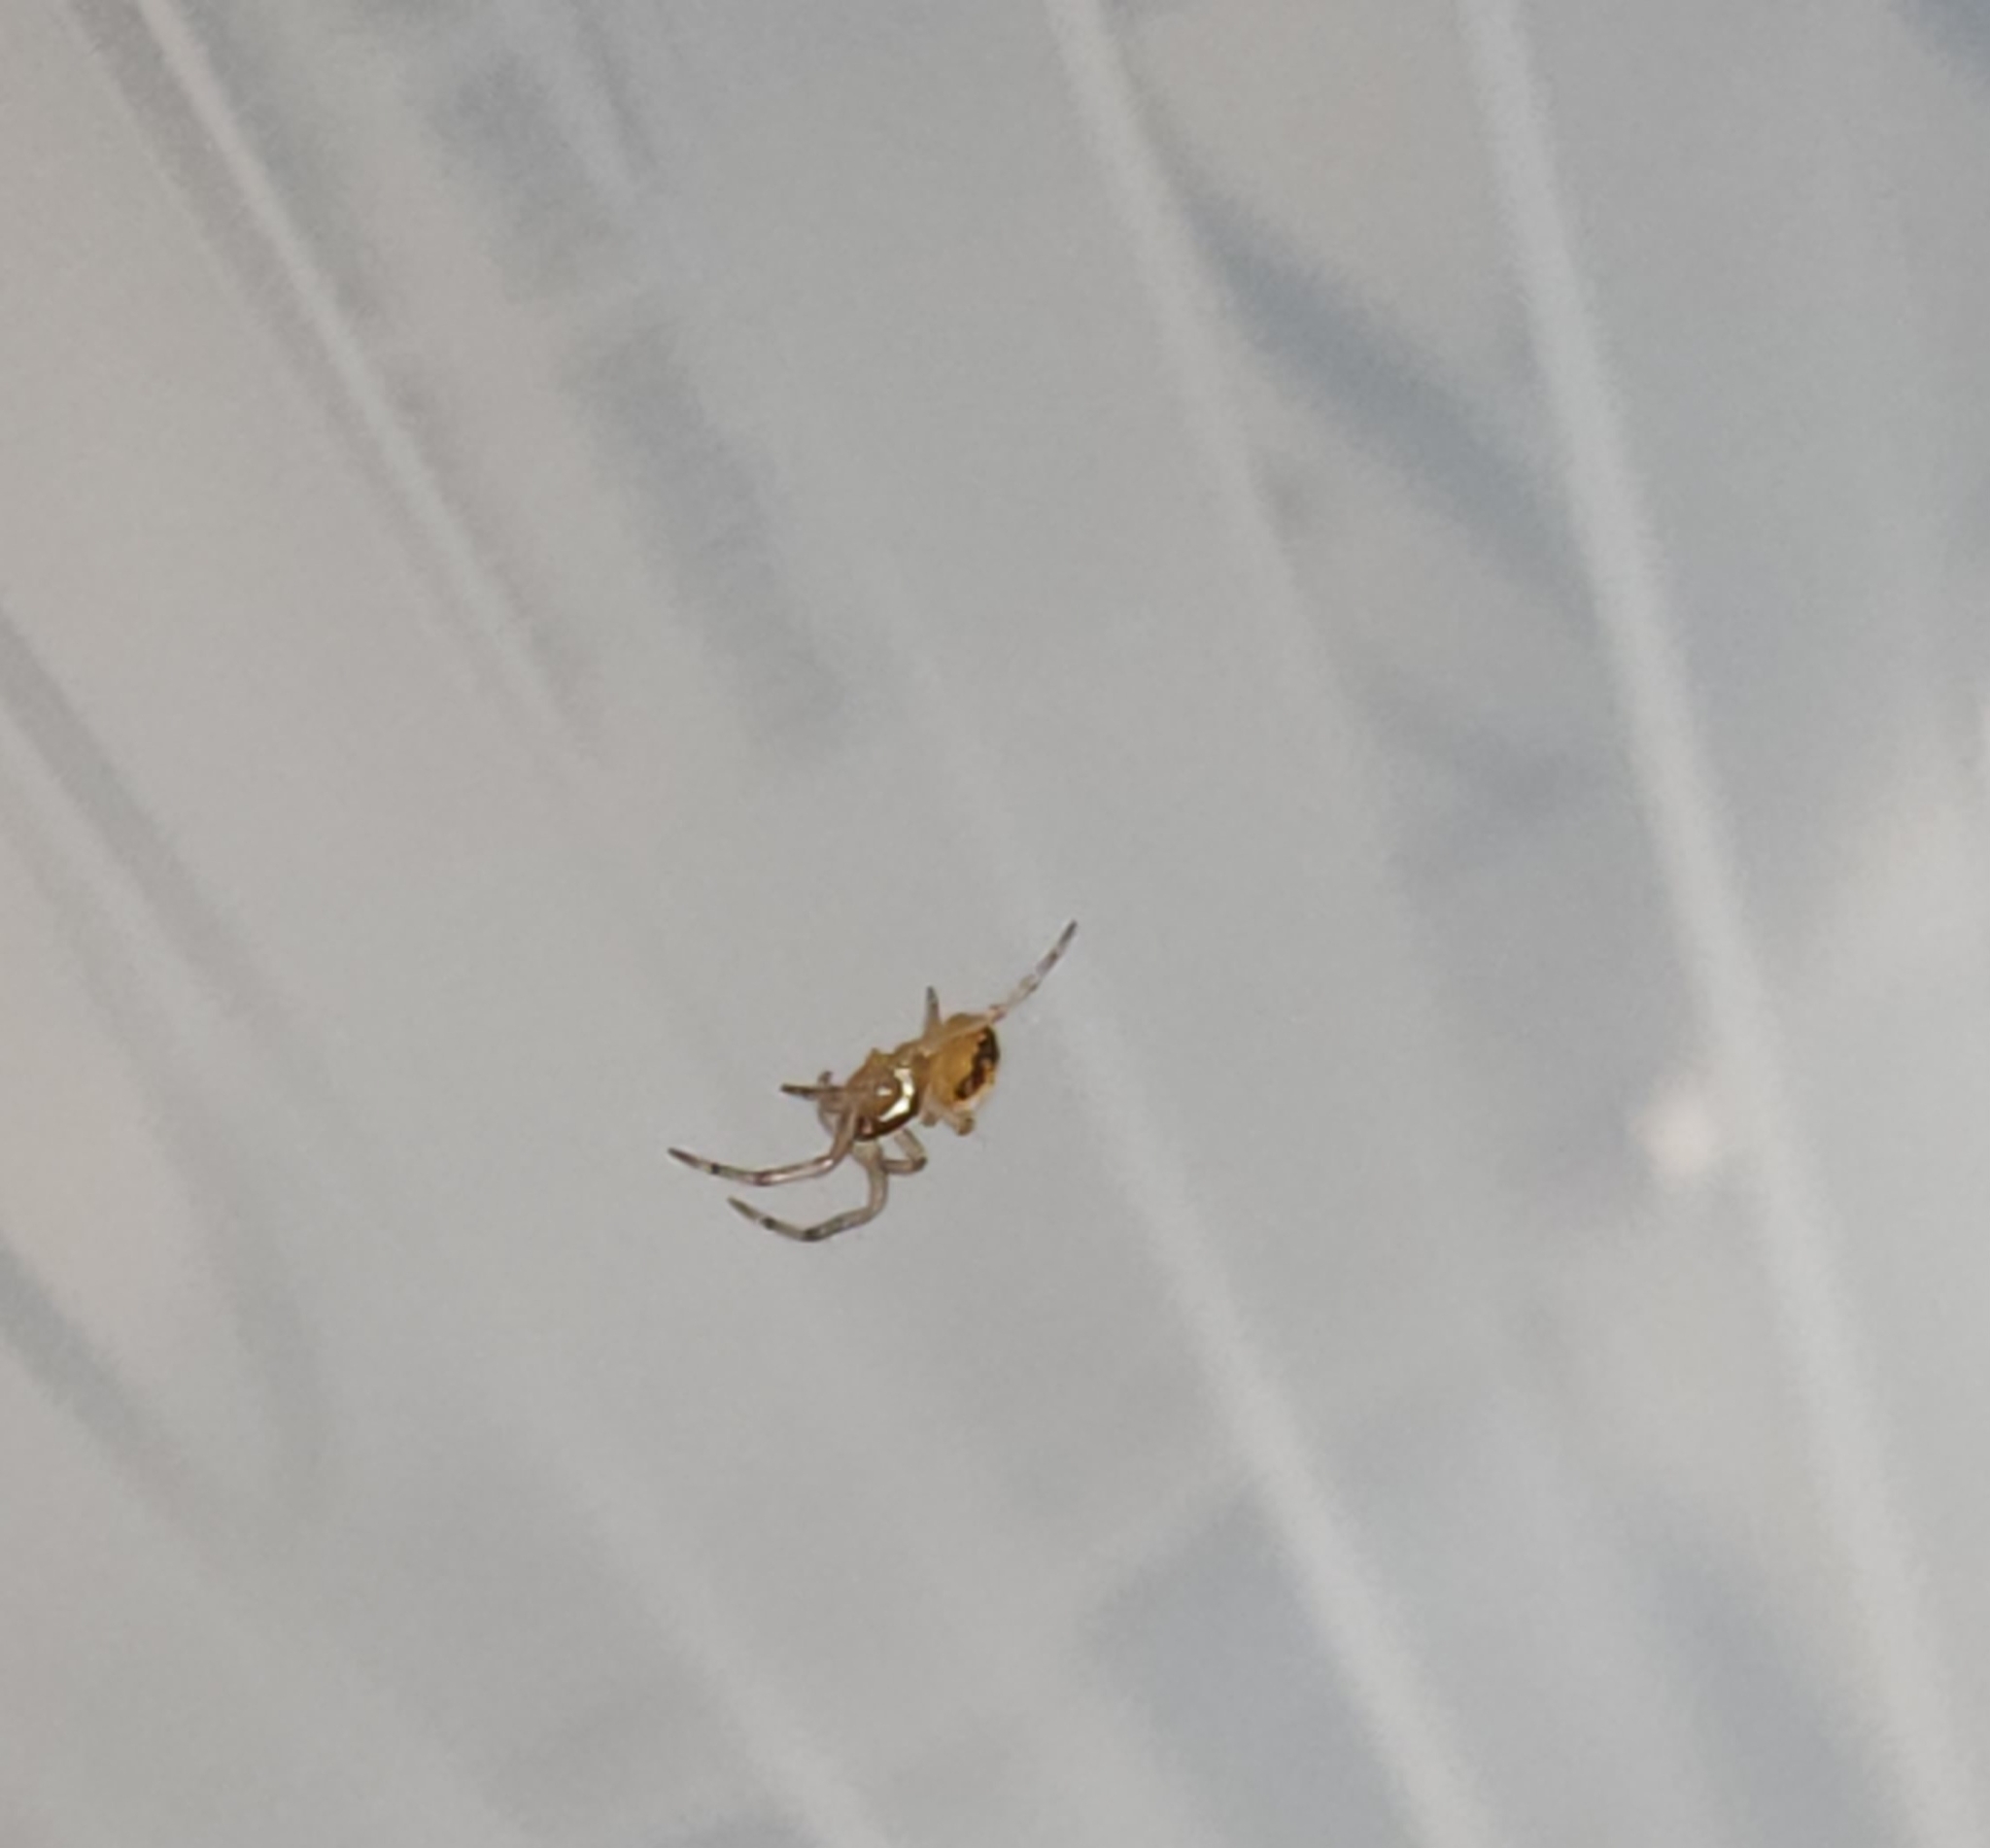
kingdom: Animalia
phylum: Arthropoda
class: Arachnida
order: Araneae
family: Araneidae
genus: Araneus
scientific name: Araneus
